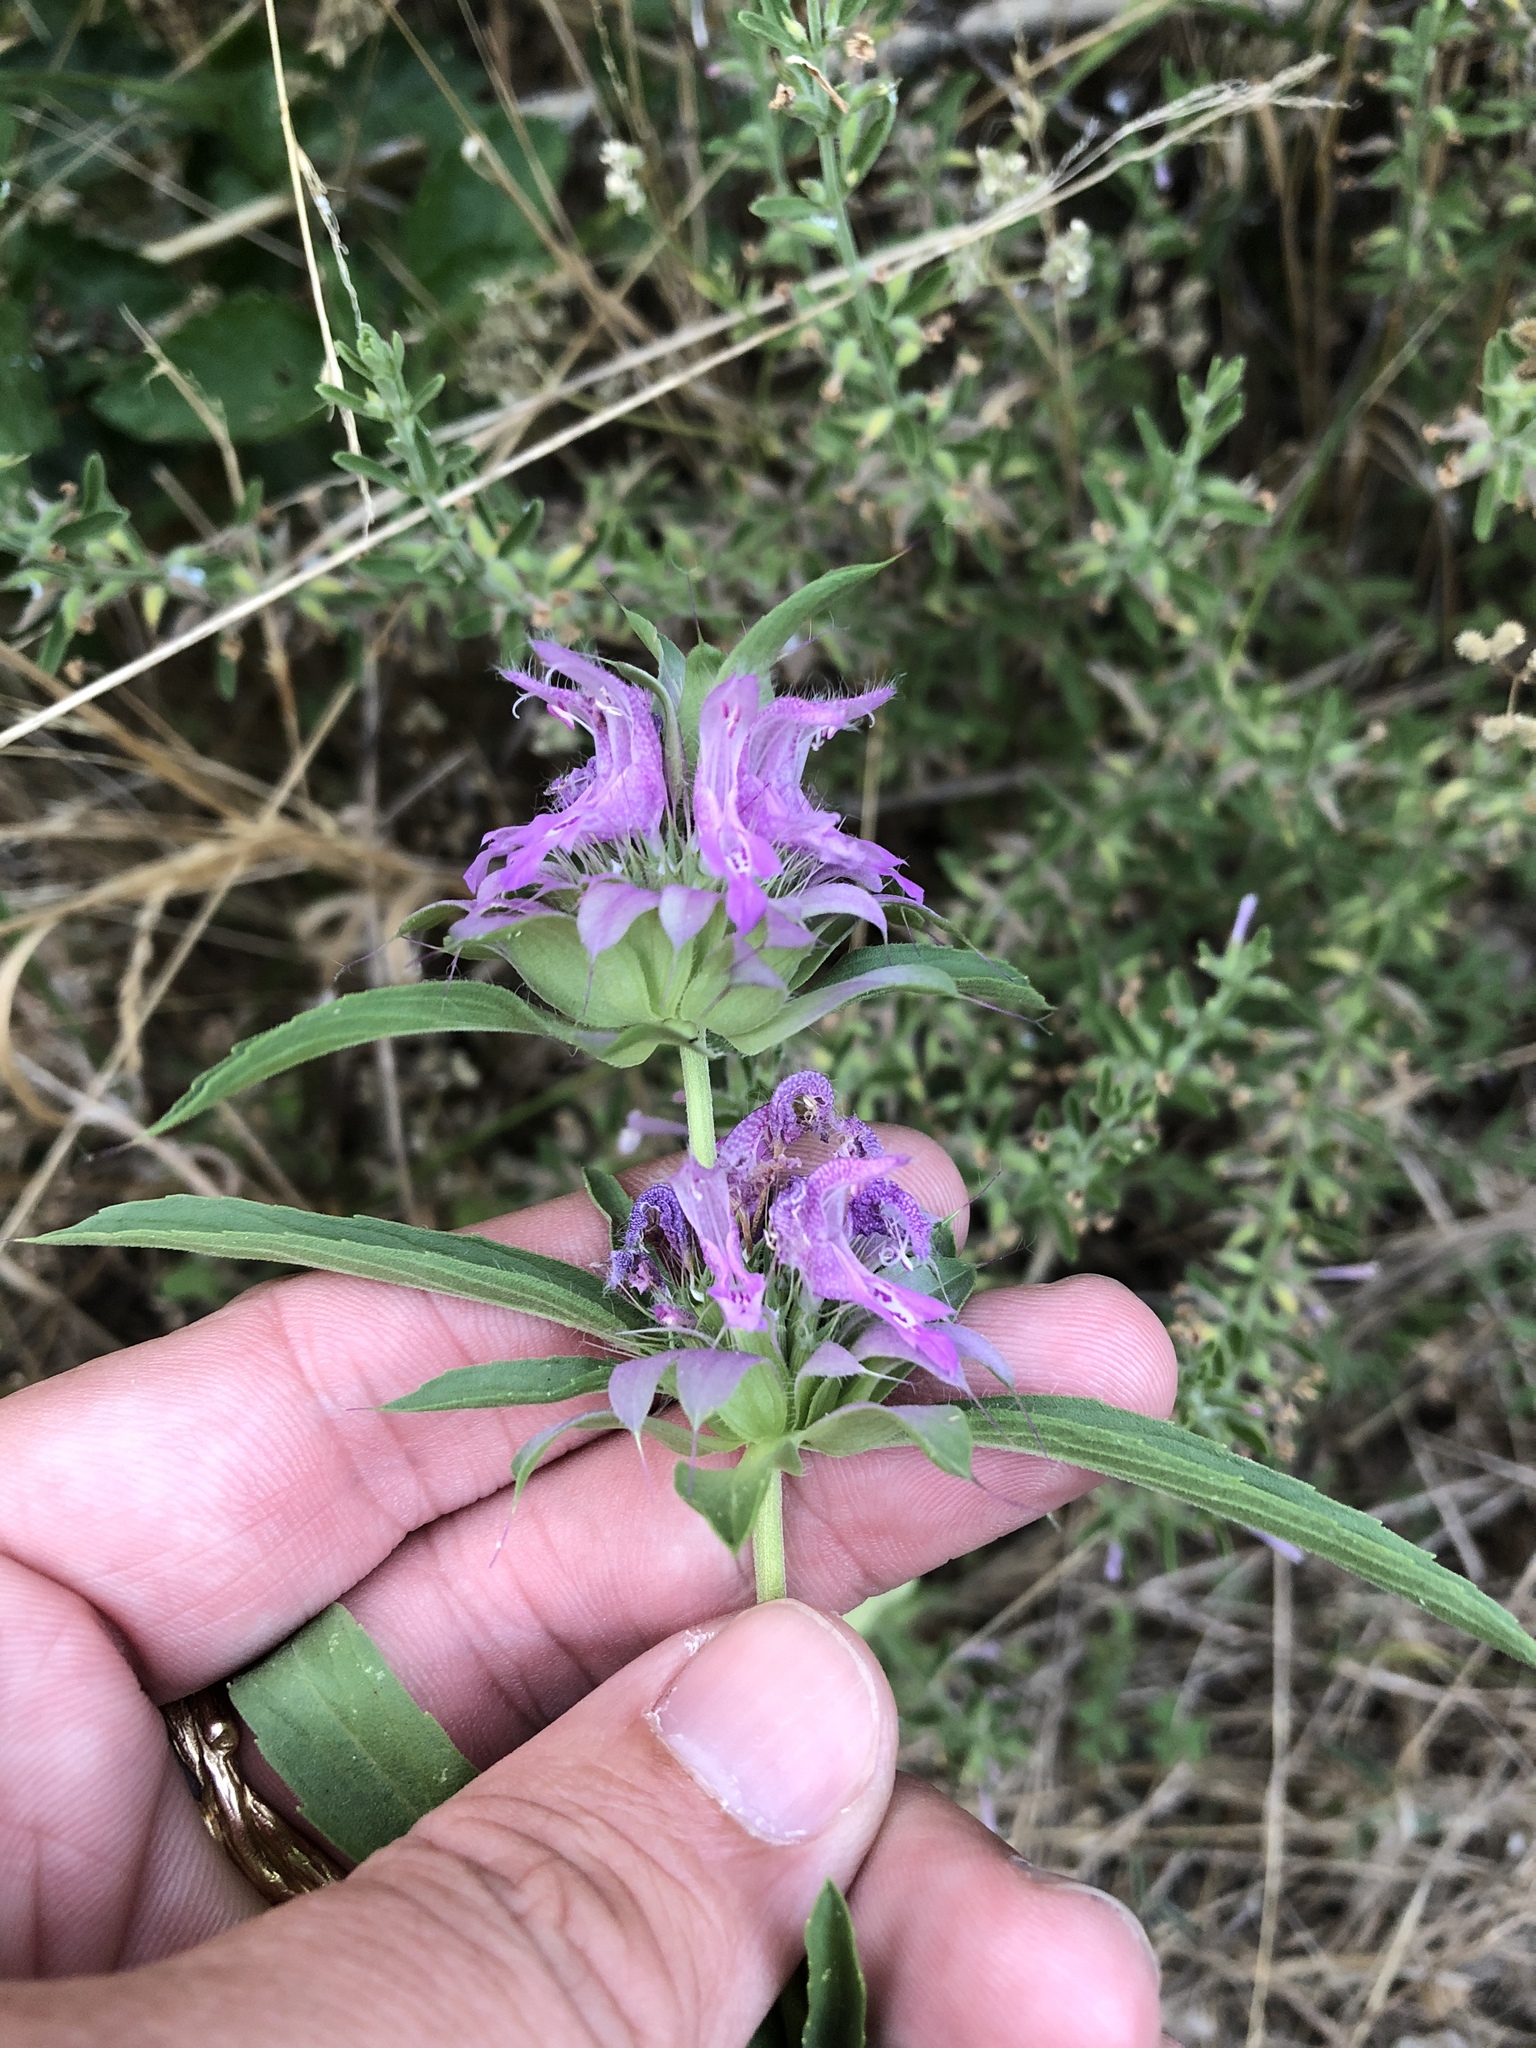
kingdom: Plantae
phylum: Tracheophyta
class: Magnoliopsida
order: Lamiales
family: Lamiaceae
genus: Monarda
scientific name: Monarda citriodora
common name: Lemon beebalm
